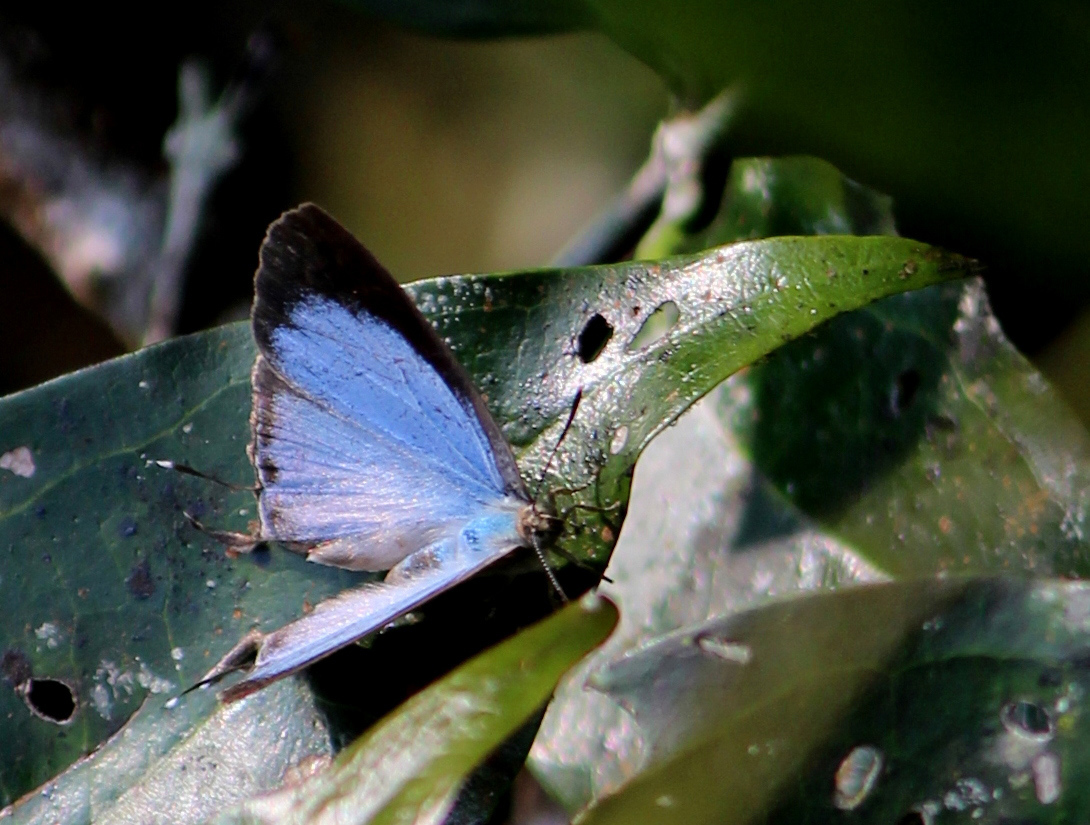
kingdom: Animalia
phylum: Arthropoda
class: Insecta
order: Lepidoptera
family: Lycaenidae
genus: Creon
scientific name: Creon cleobis
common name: Broad-tail royal
